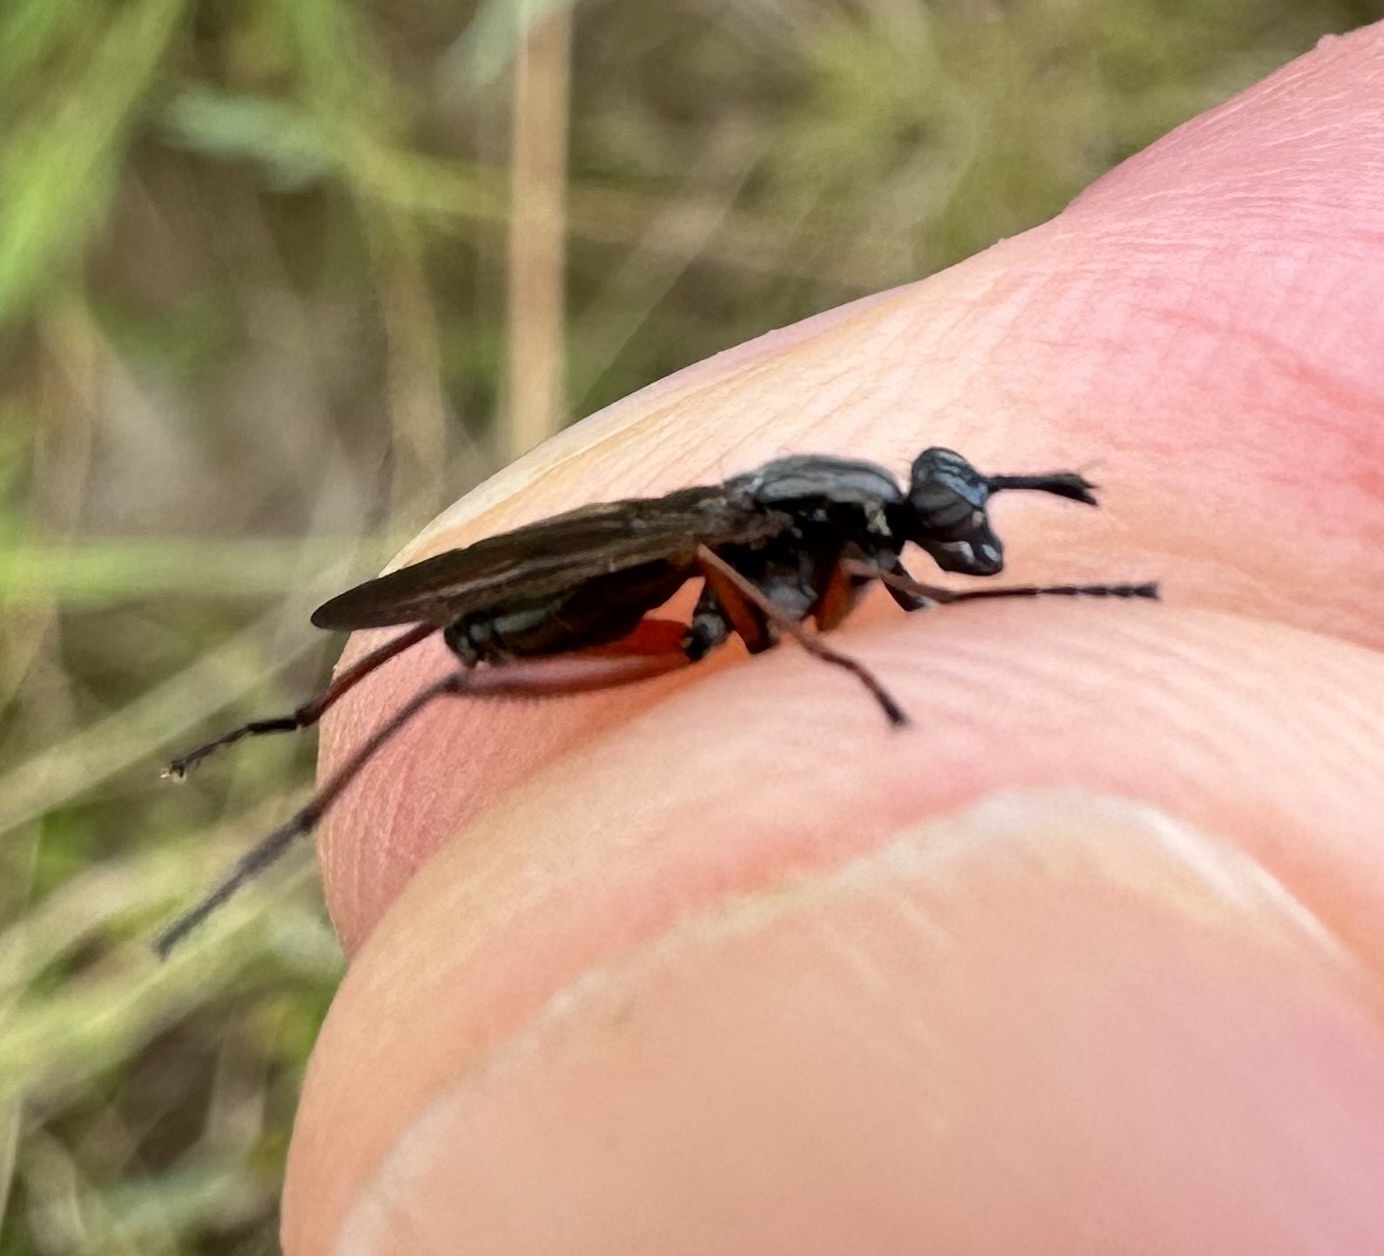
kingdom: Animalia
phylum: Arthropoda
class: Insecta
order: Diptera
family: Sciomyzidae
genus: Sepedon
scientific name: Sepedon sphegea
